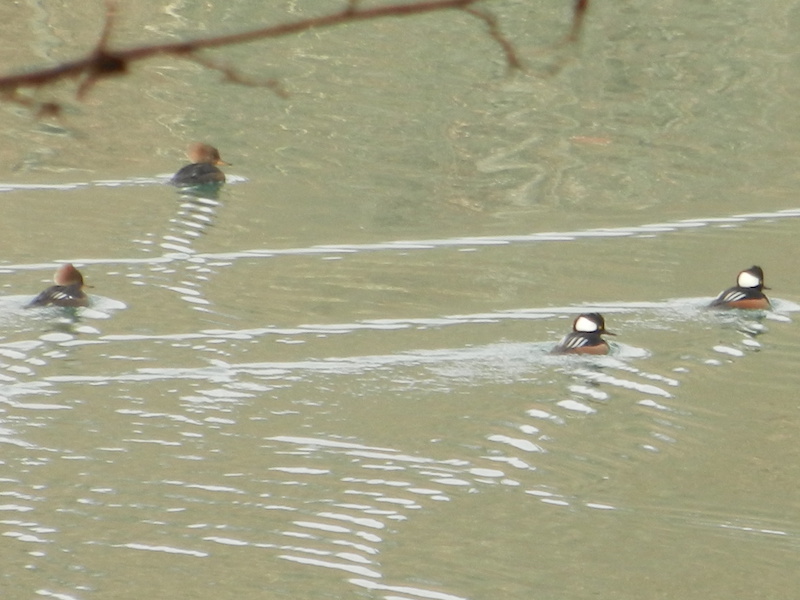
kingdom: Animalia
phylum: Chordata
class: Aves
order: Anseriformes
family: Anatidae
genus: Lophodytes
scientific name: Lophodytes cucullatus
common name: Hooded merganser
